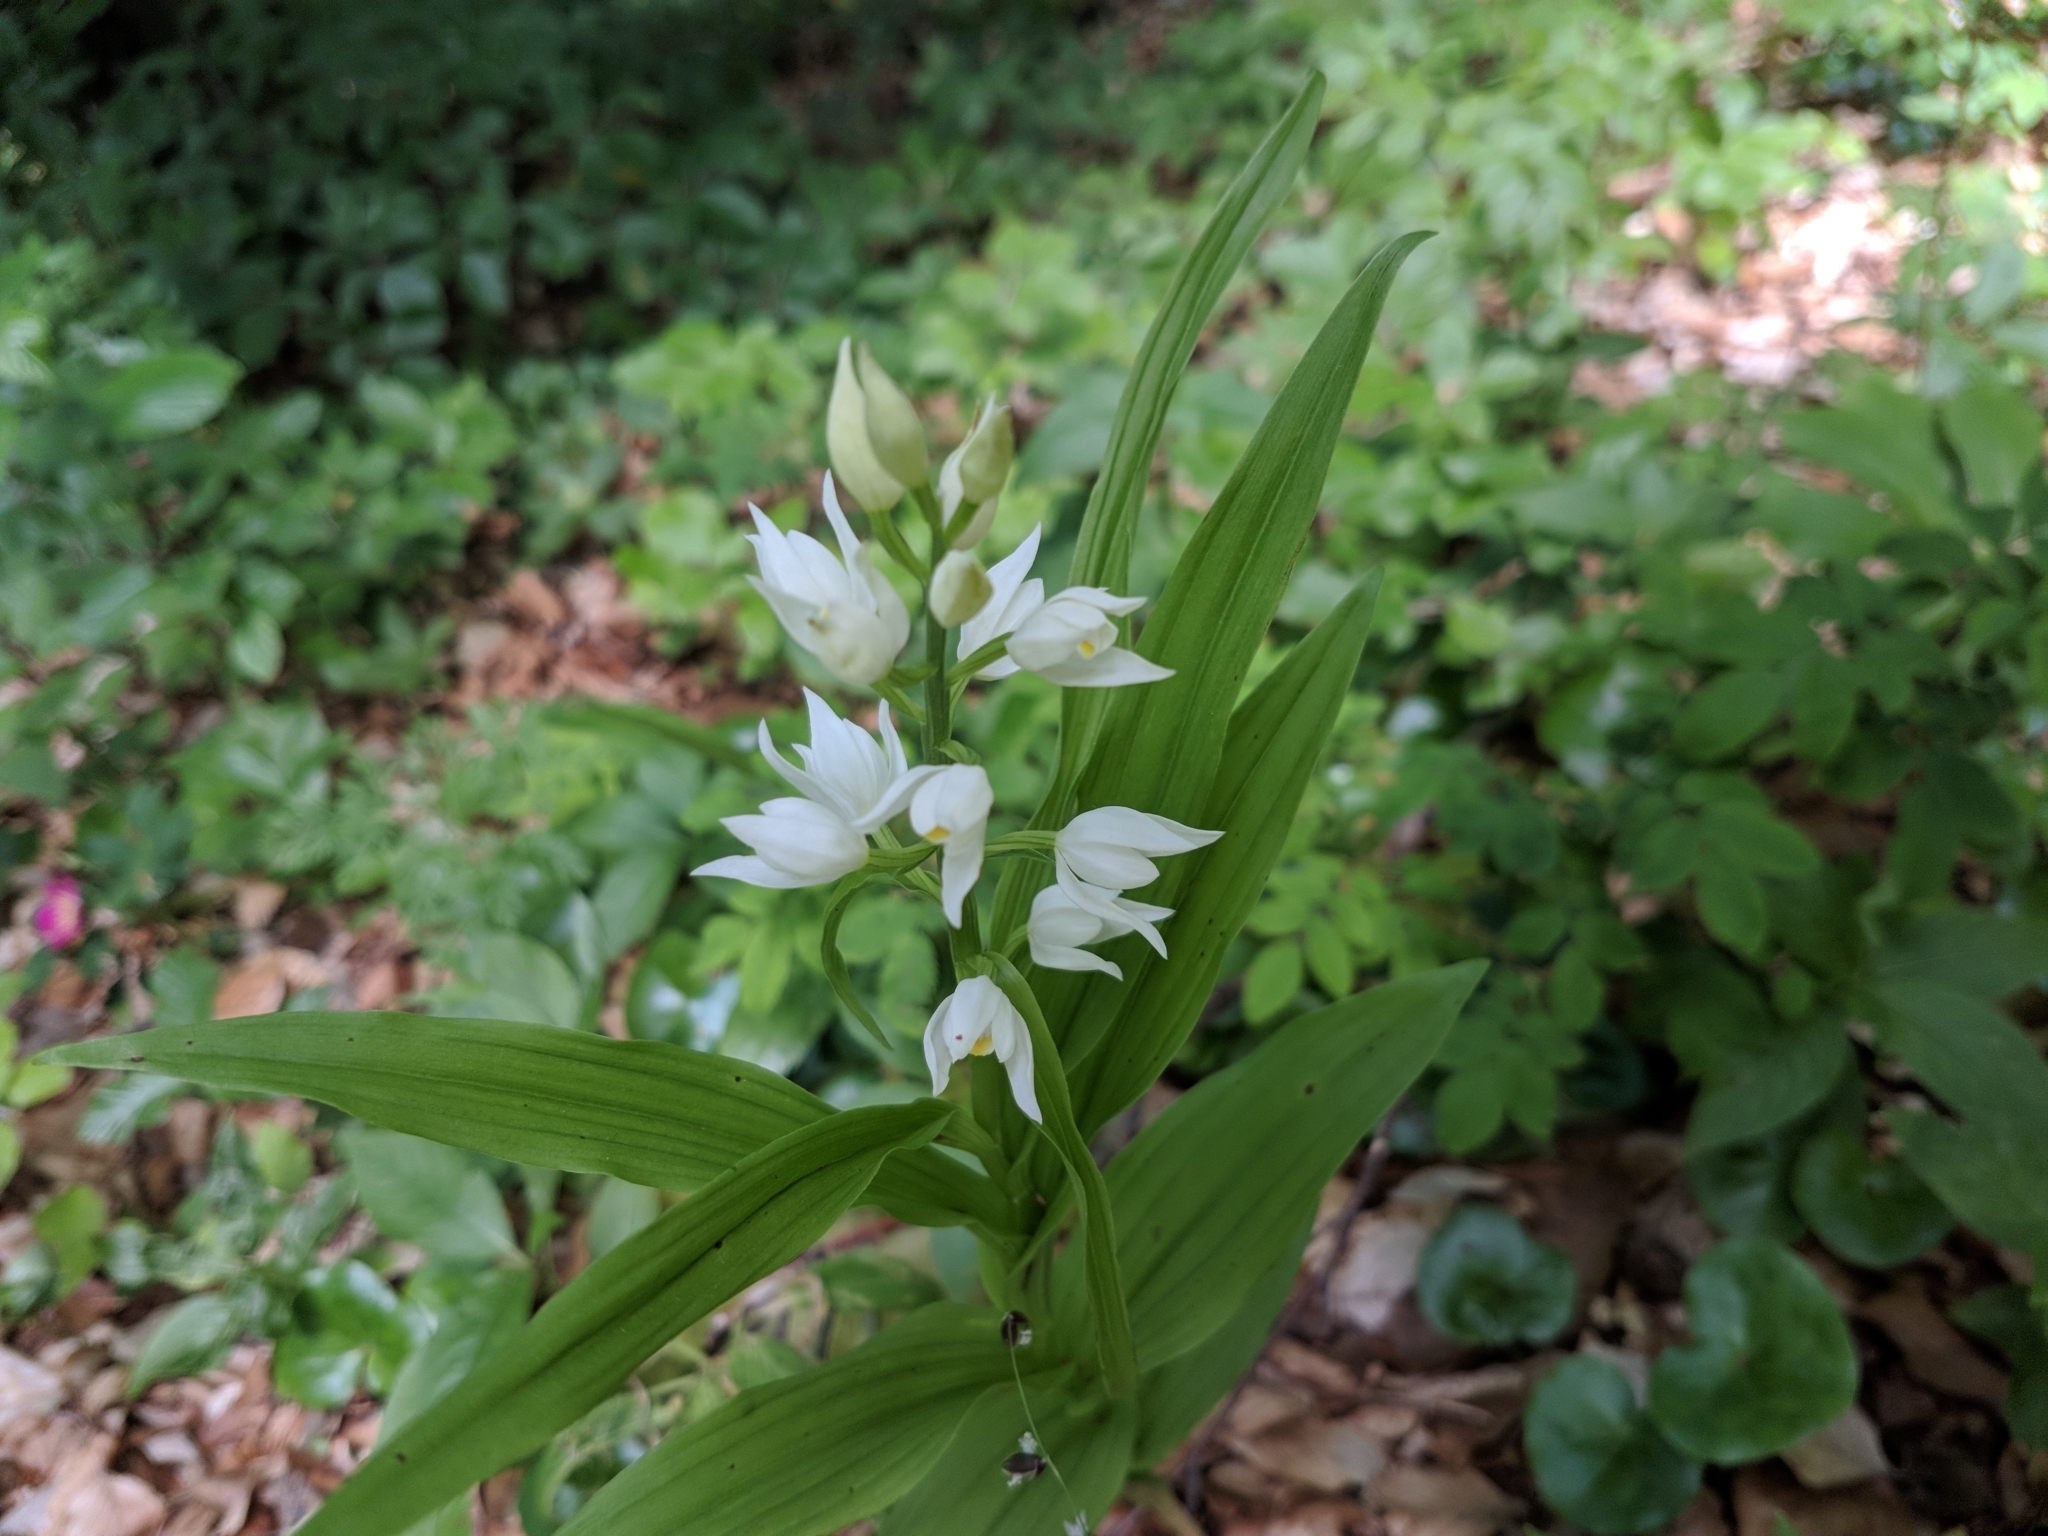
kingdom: Plantae
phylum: Tracheophyta
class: Liliopsida
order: Asparagales
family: Orchidaceae
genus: Cephalanthera
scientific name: Cephalanthera longifolia
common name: Narrow-leaved helleborine
